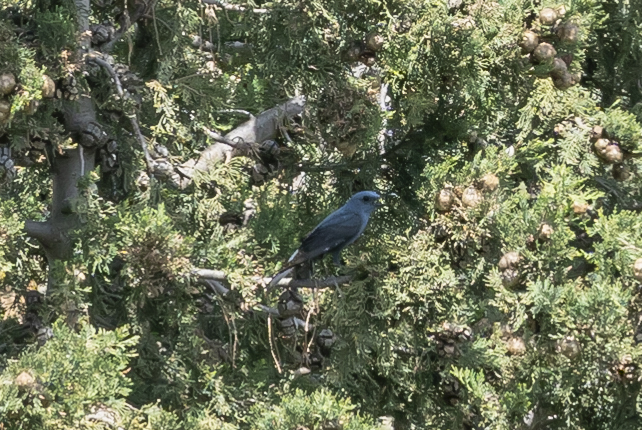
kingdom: Animalia
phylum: Chordata
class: Aves
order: Passeriformes
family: Muscicapidae
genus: Monticola
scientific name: Monticola solitarius
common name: Blue rock thrush
